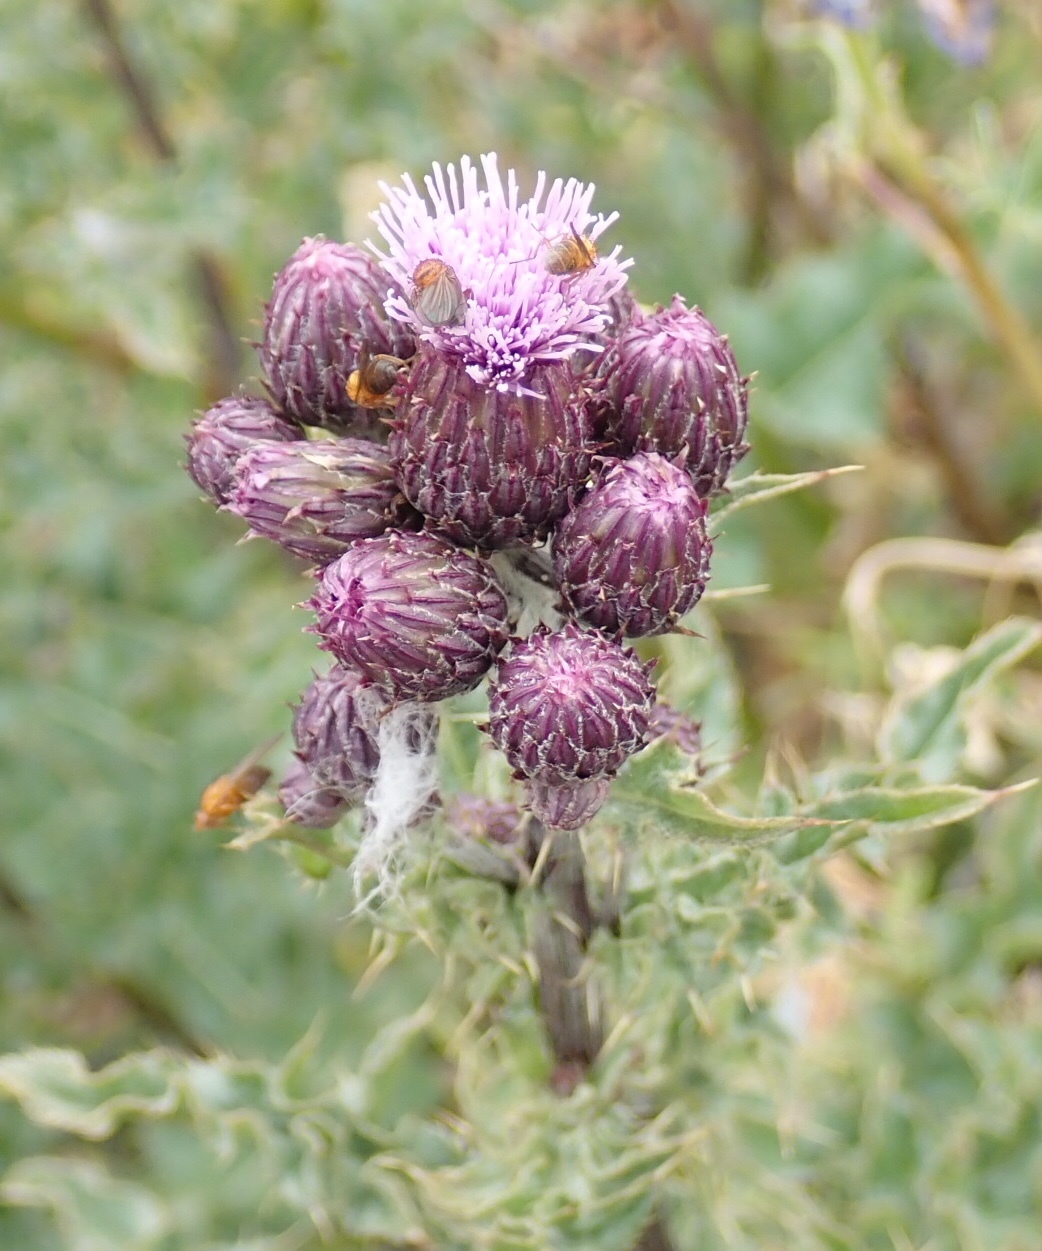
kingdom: Plantae
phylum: Tracheophyta
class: Magnoliopsida
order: Asterales
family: Asteraceae
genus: Cirsium
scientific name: Cirsium arvense
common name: Creeping thistle
